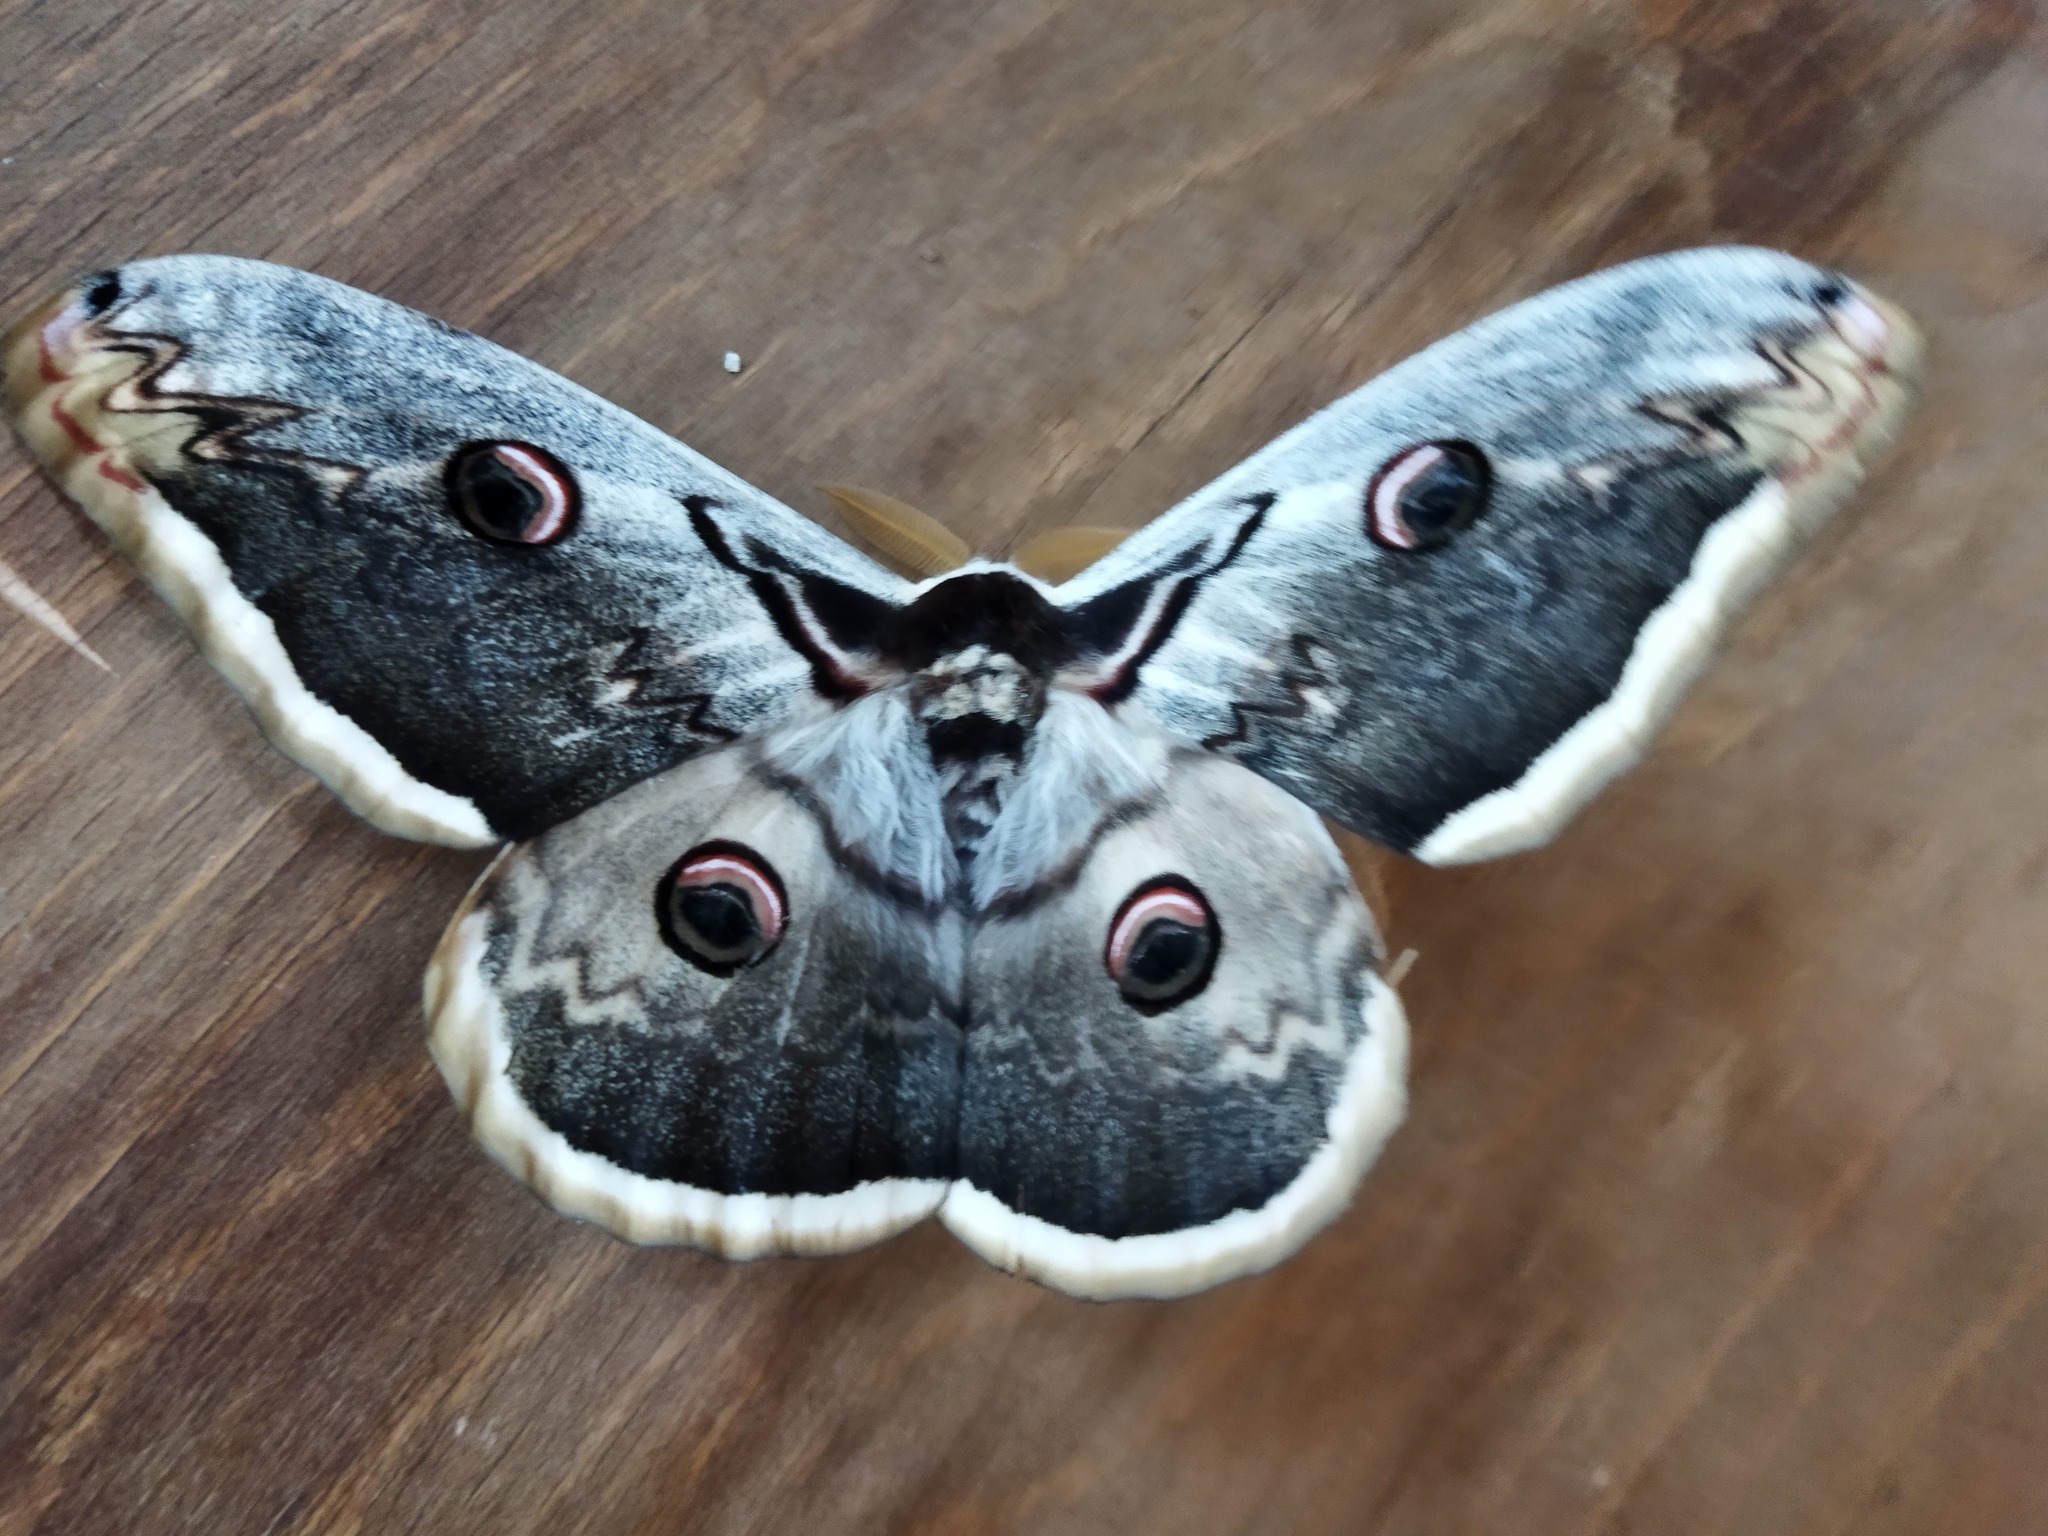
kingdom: Animalia
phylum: Arthropoda
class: Insecta
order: Lepidoptera
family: Saturniidae
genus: Saturnia
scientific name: Saturnia pyri
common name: Great peacock moth
